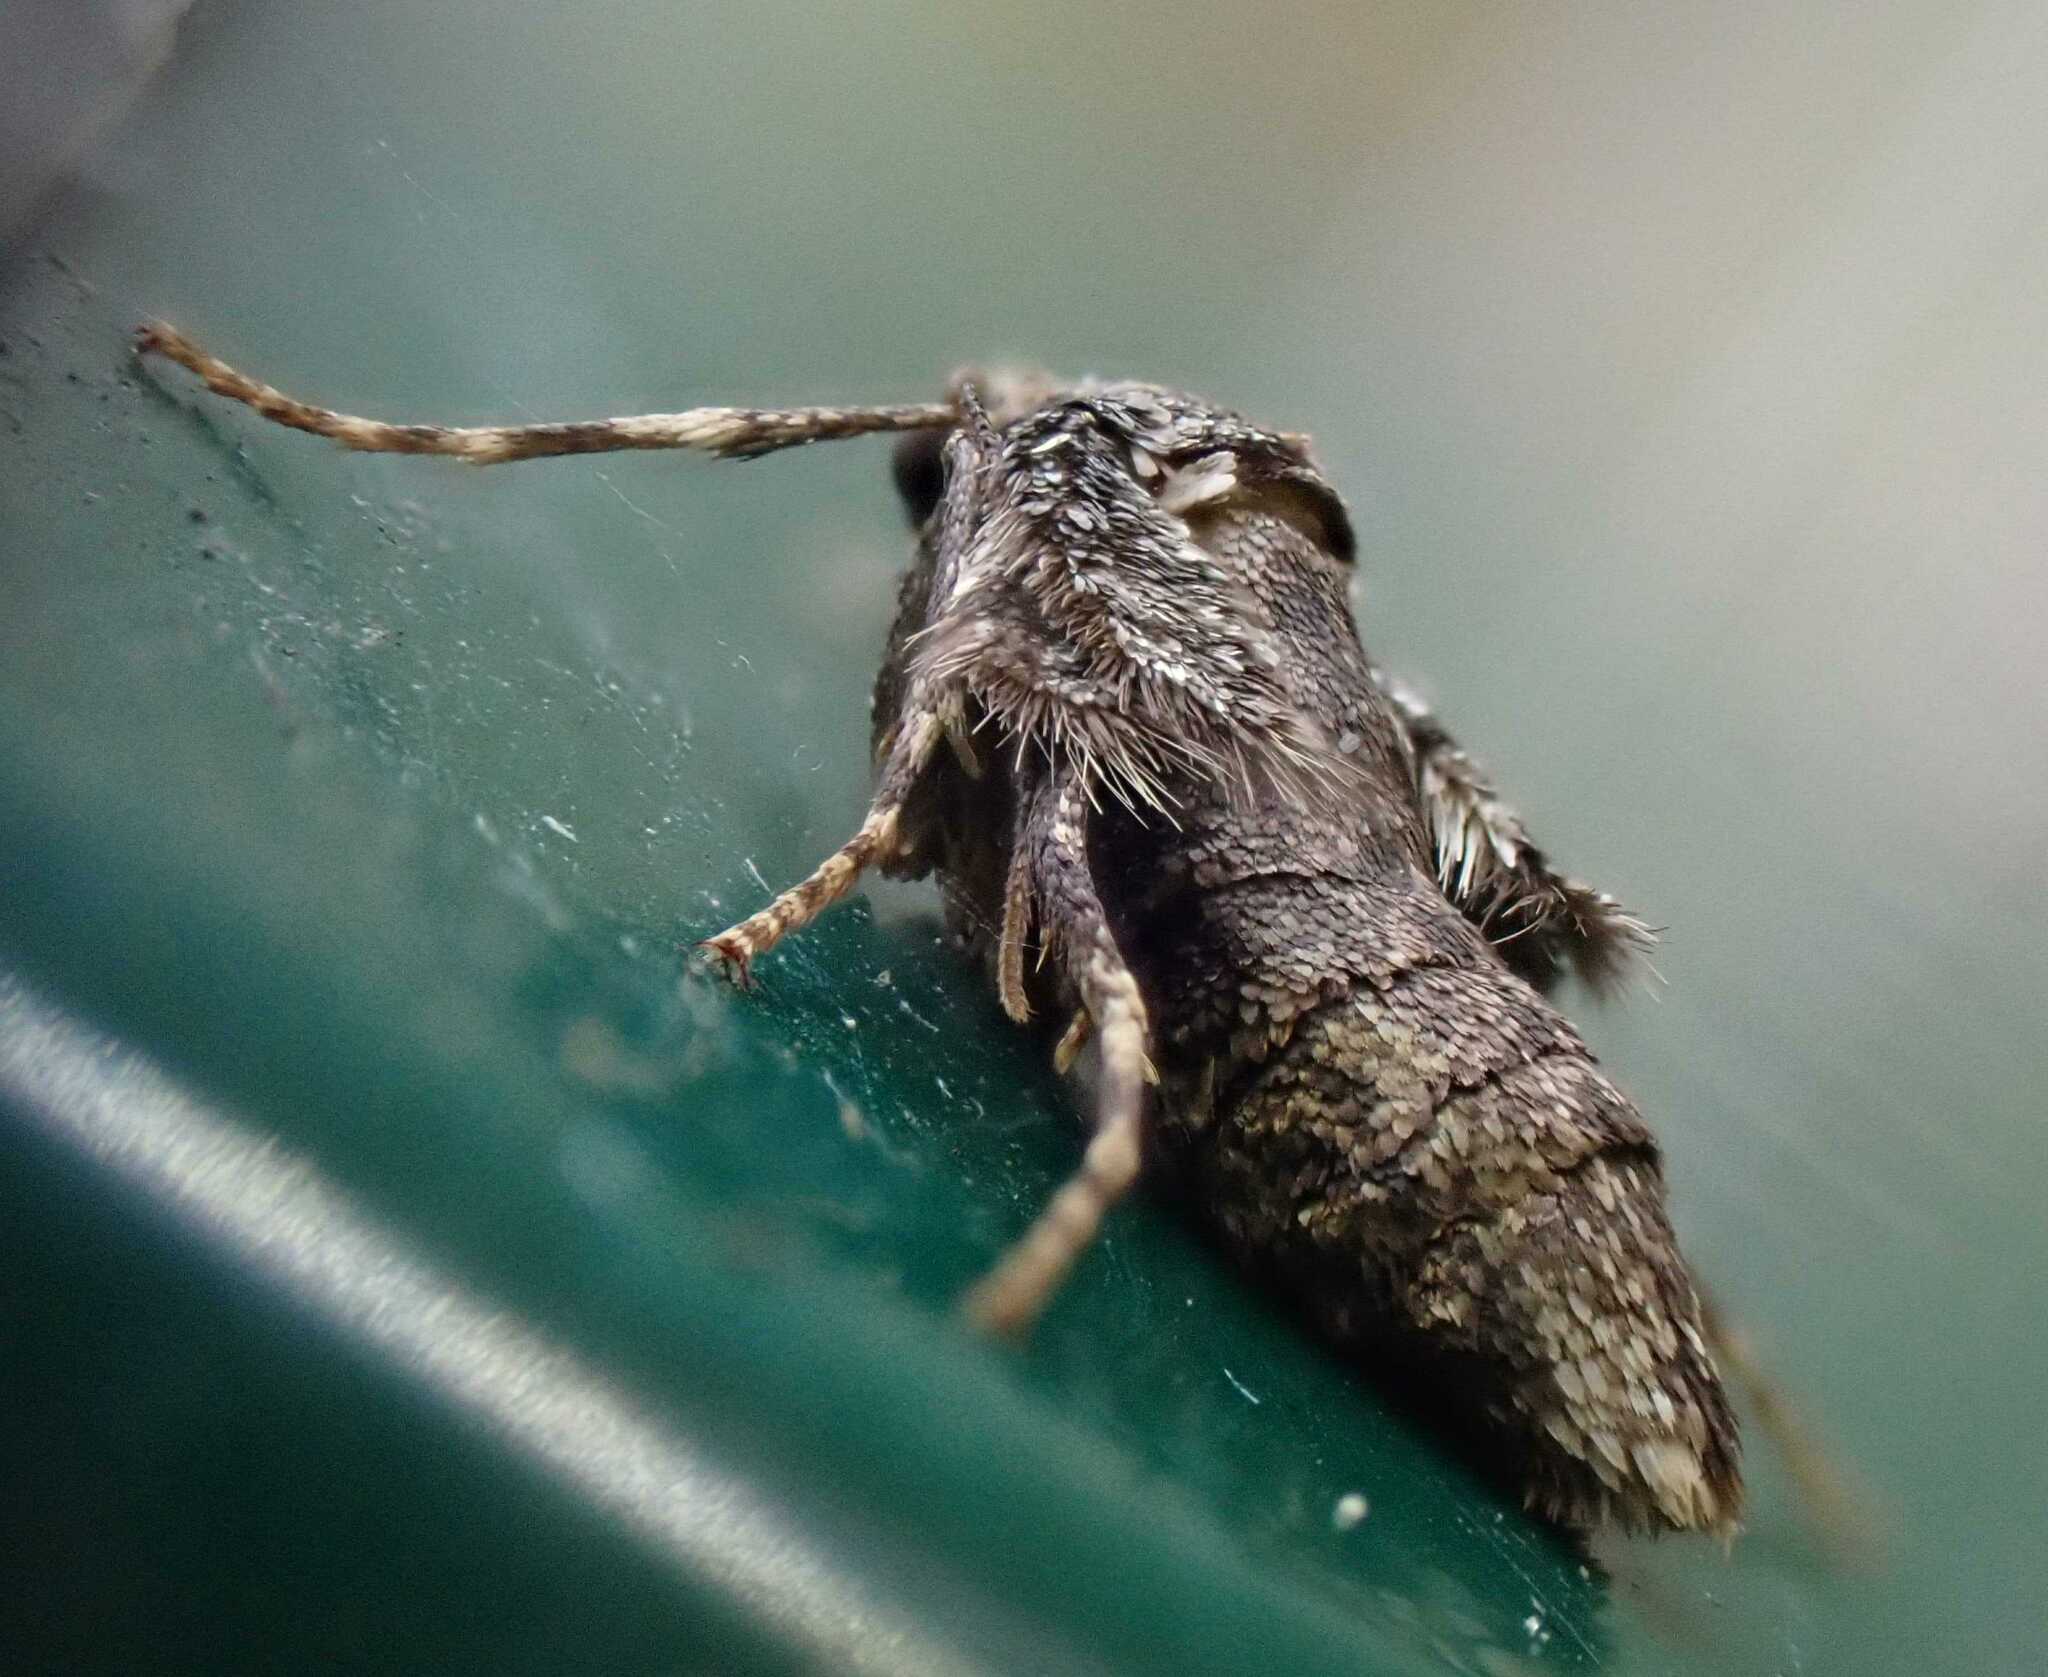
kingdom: Animalia
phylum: Arthropoda
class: Insecta
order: Lepidoptera
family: Geometridae
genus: Operophtera
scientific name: Operophtera brumata
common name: Winter moth
